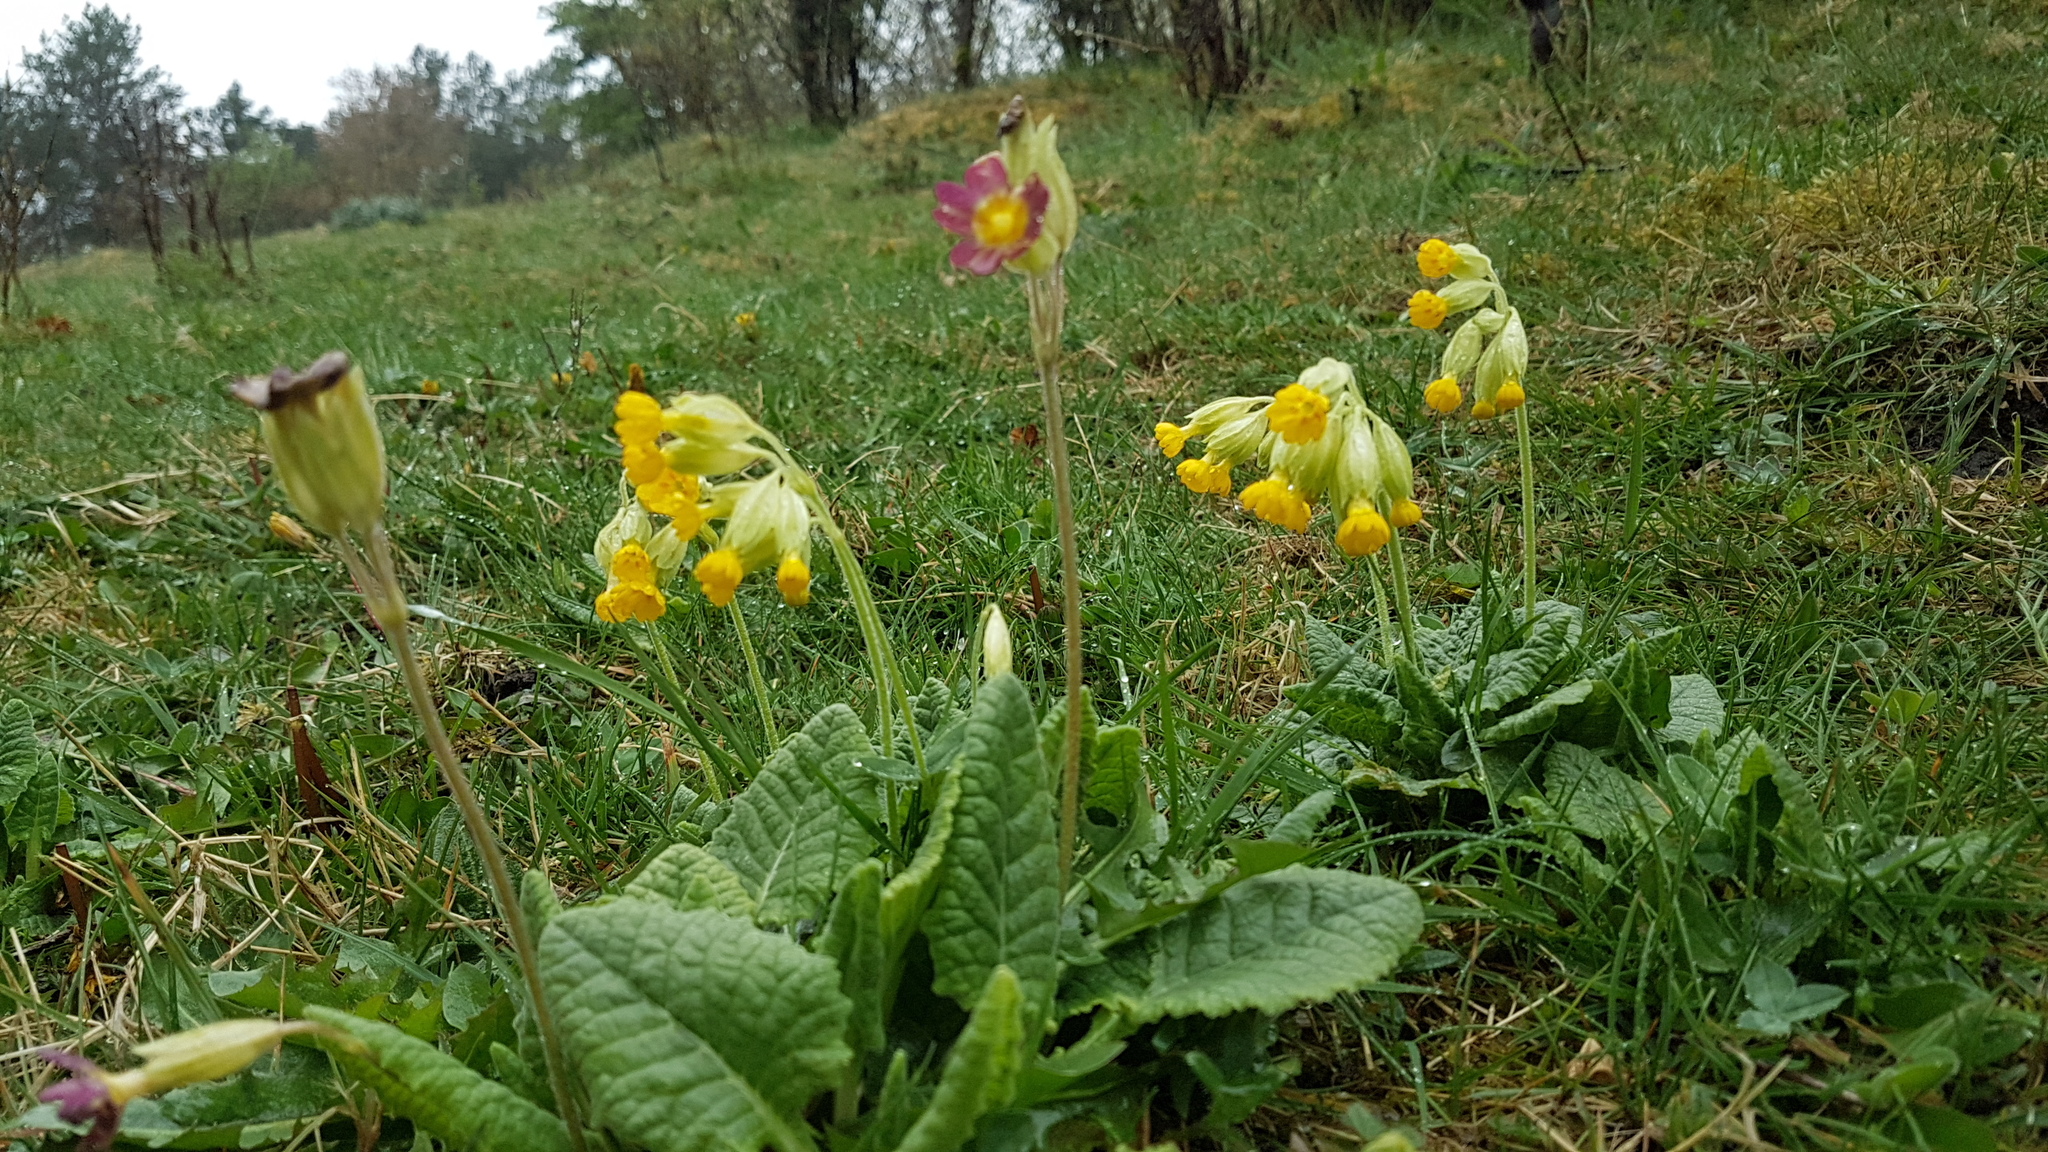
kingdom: Plantae
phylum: Tracheophyta
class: Magnoliopsida
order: Ericales
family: Primulaceae
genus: Primula
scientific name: Primula veris
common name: Cowslip
